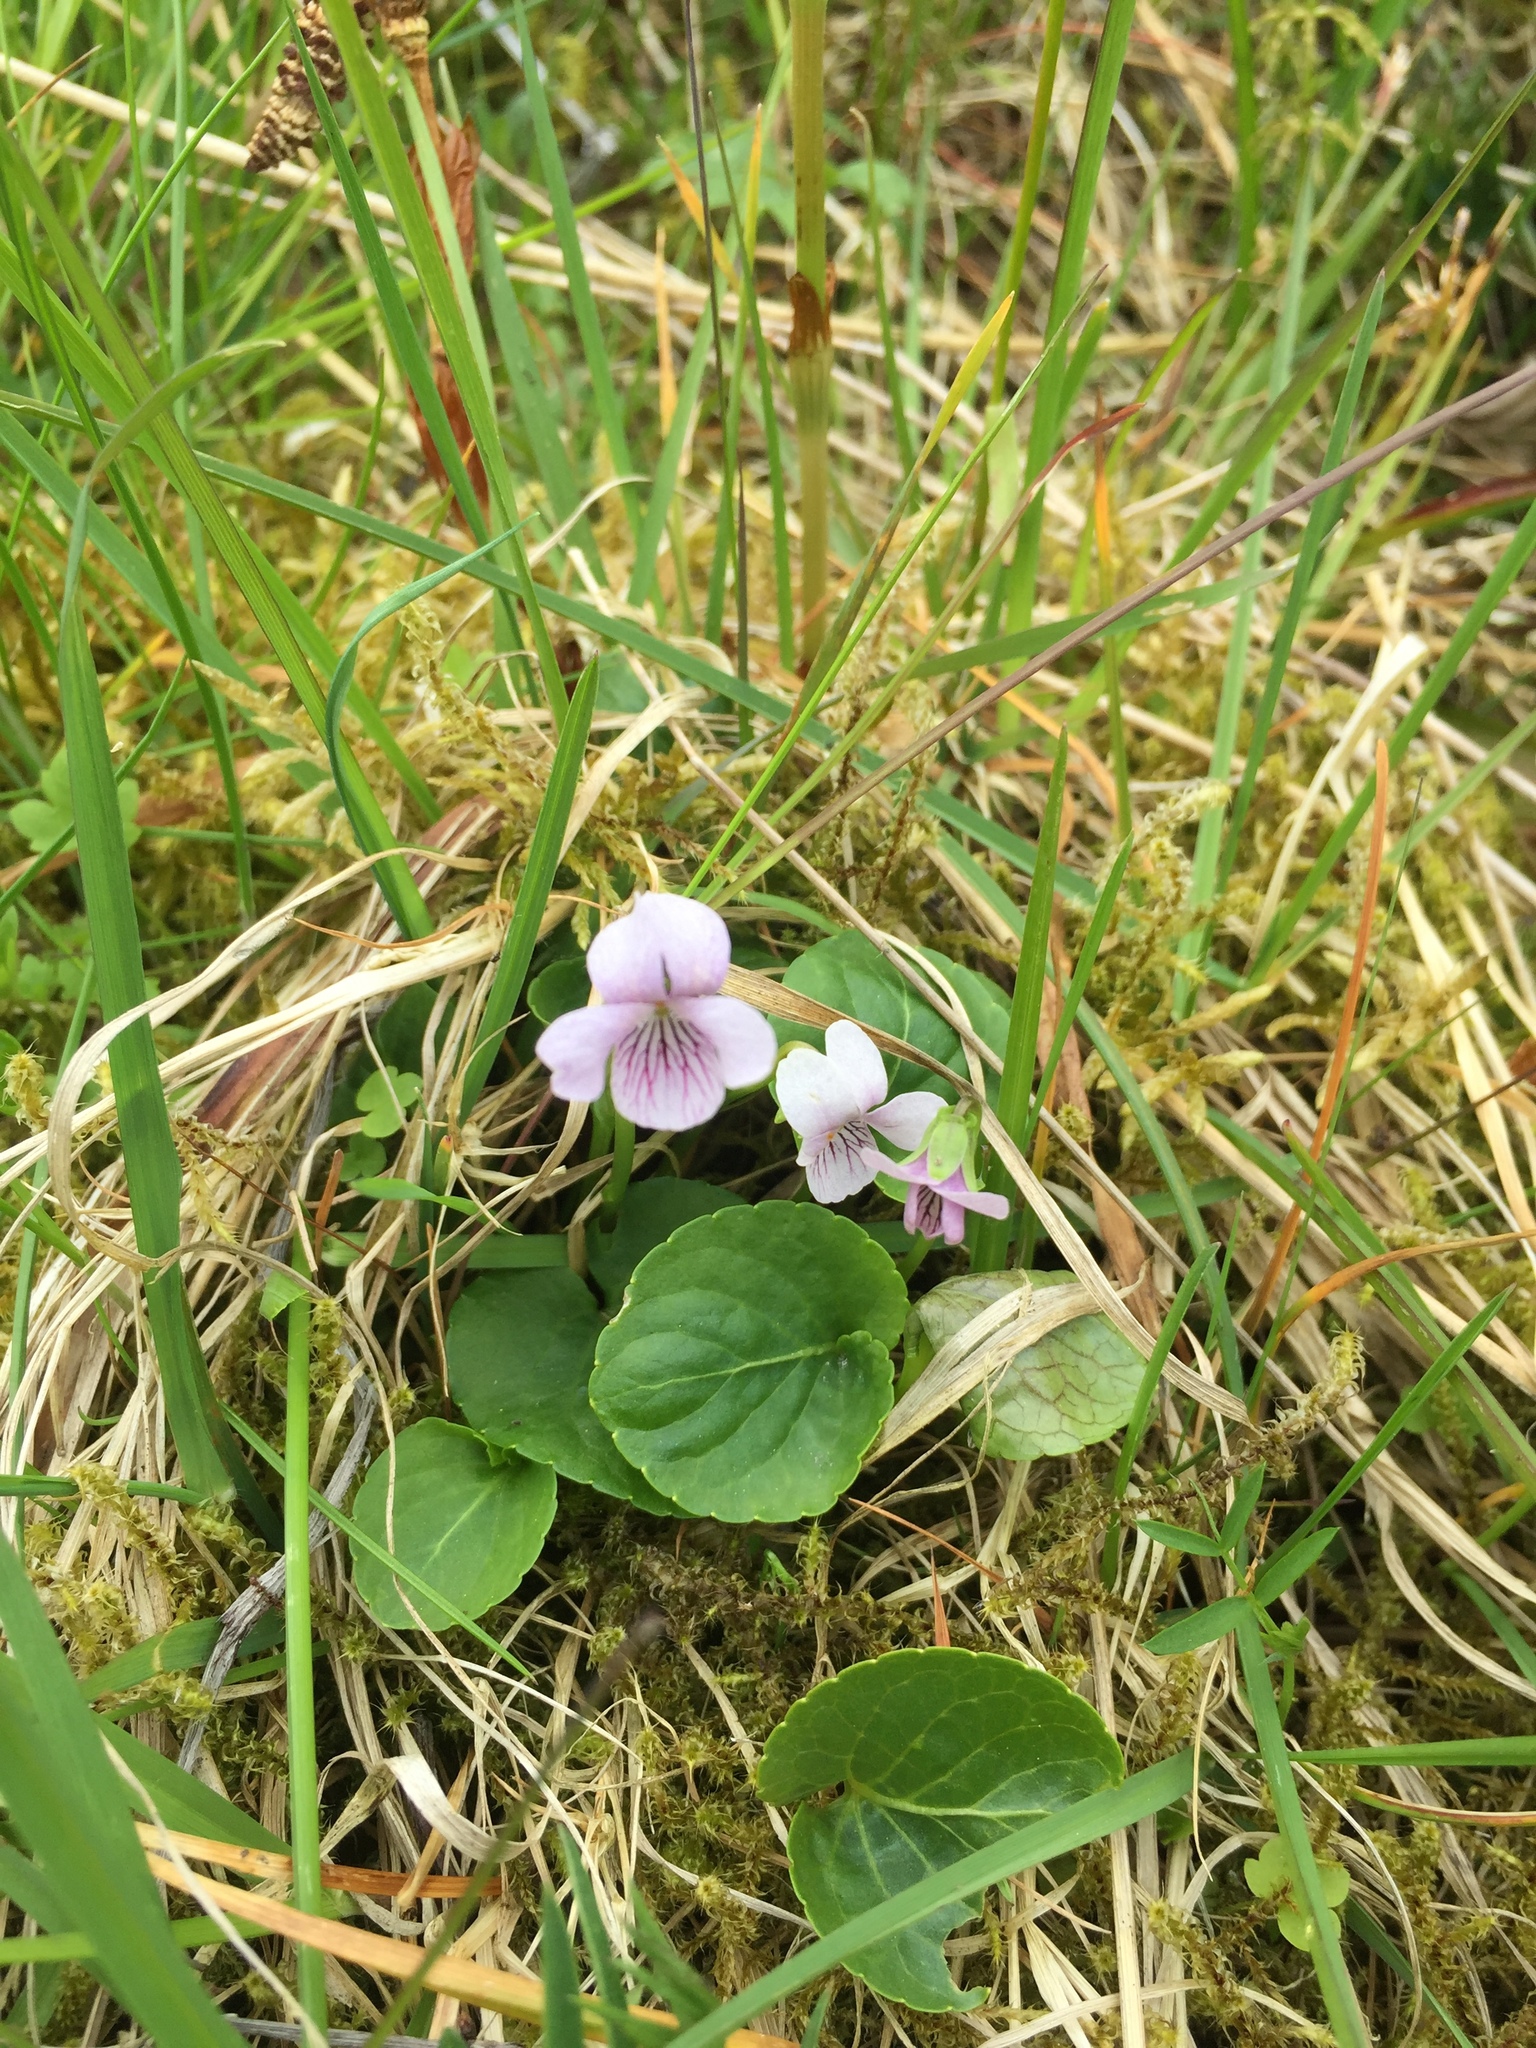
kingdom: Plantae
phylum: Tracheophyta
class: Magnoliopsida
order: Malpighiales
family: Violaceae
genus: Viola
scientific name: Viola palustris
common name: Marsh violet
